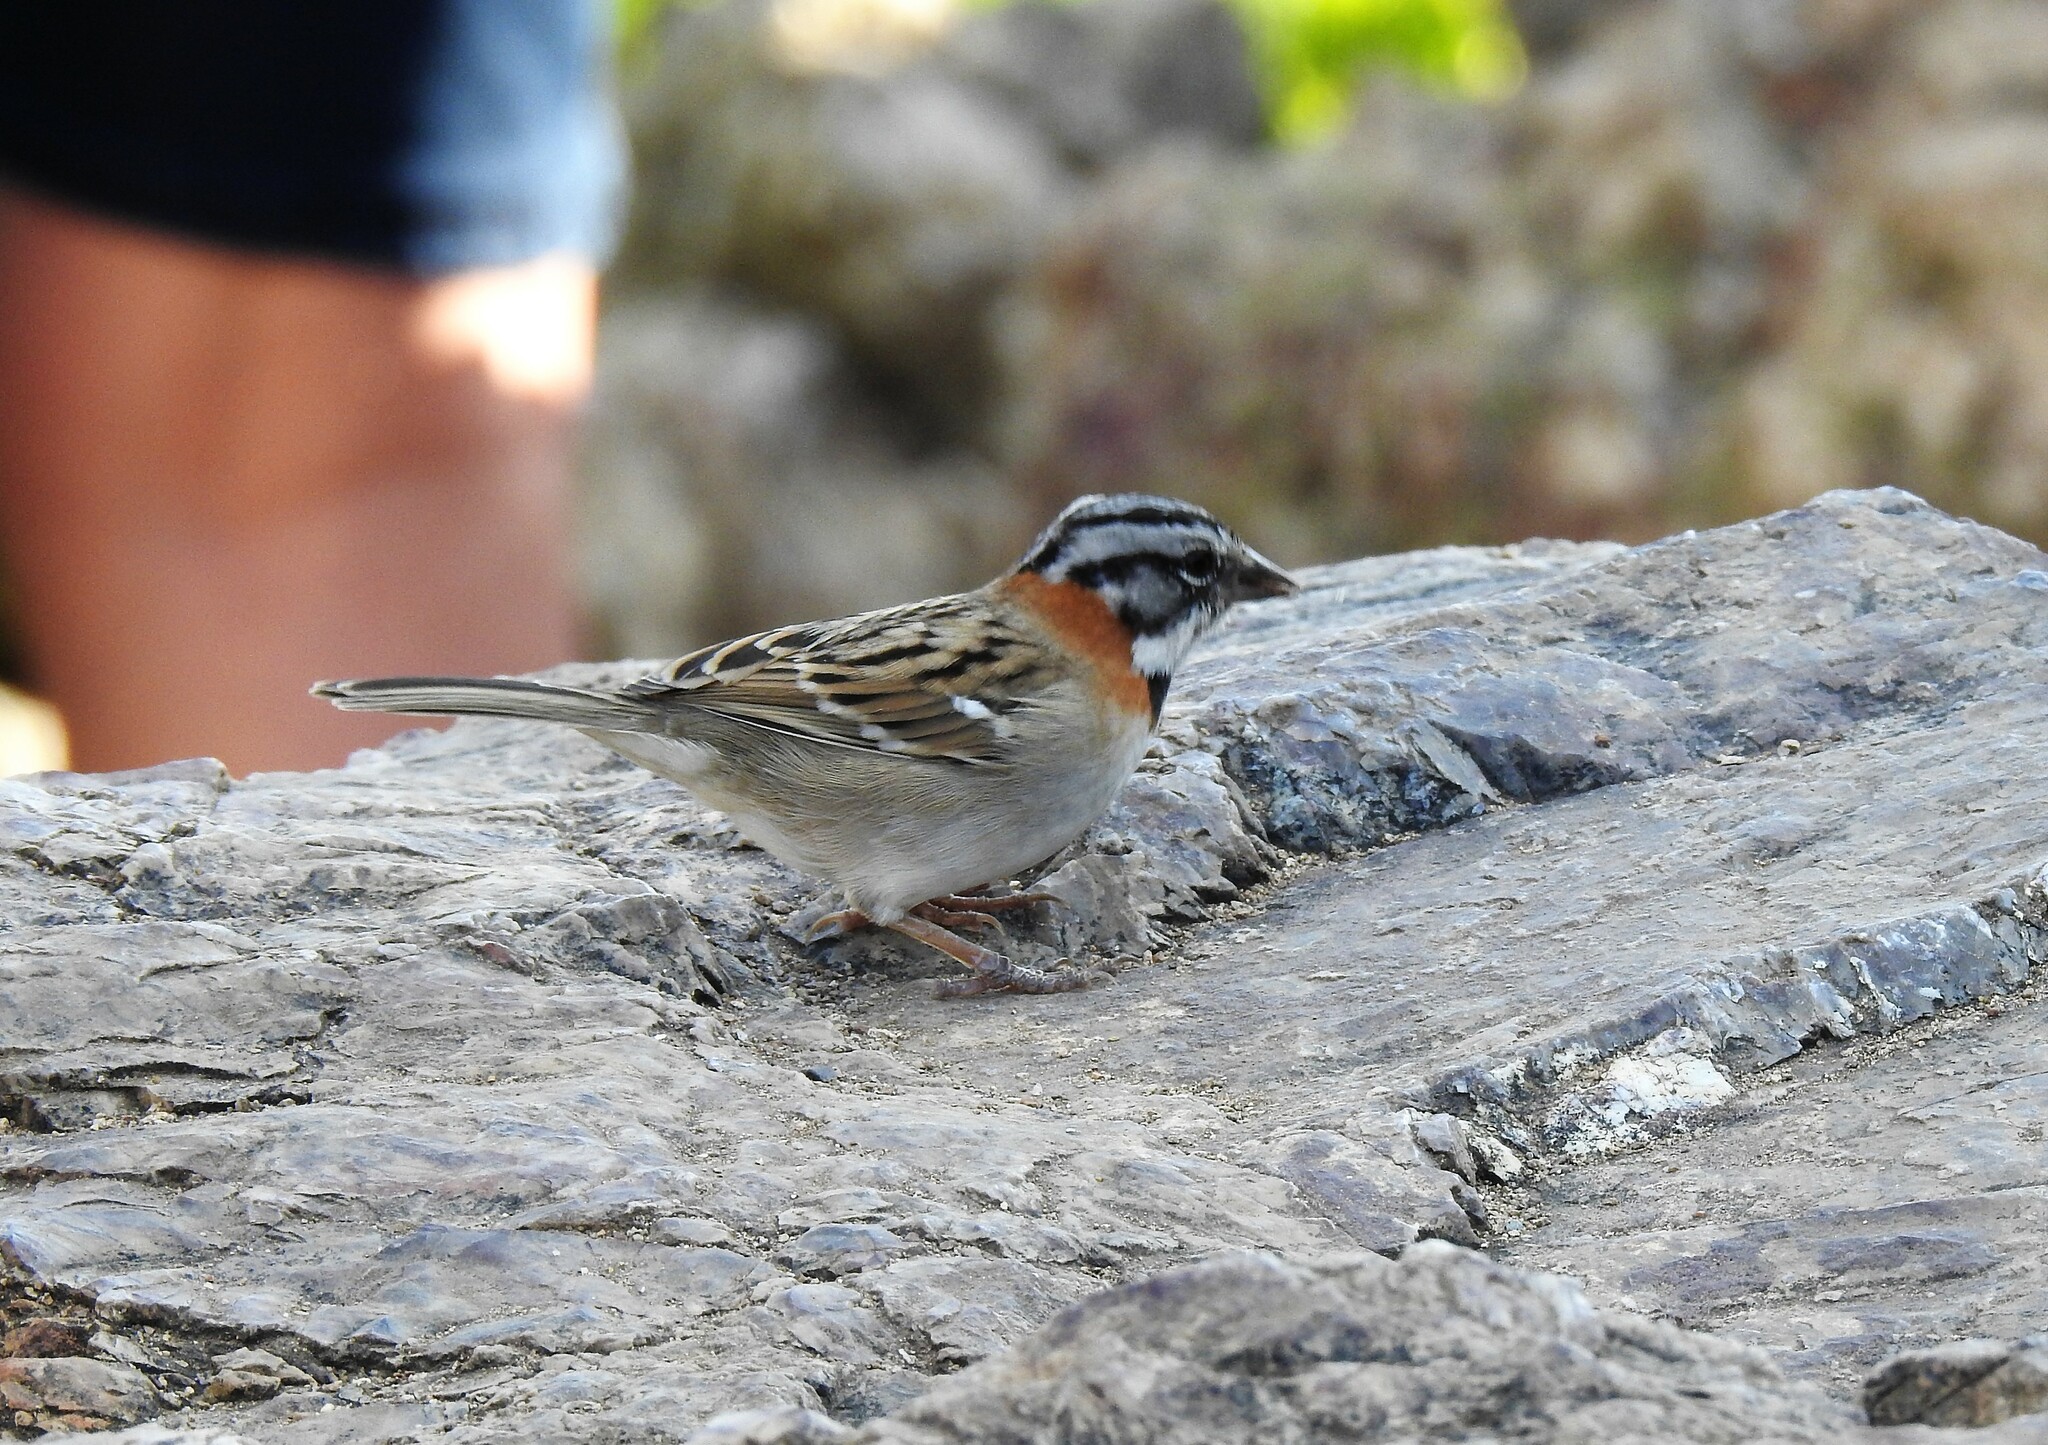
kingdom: Animalia
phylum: Chordata
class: Aves
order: Passeriformes
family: Passerellidae
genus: Zonotrichia
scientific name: Zonotrichia capensis
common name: Rufous-collared sparrow
